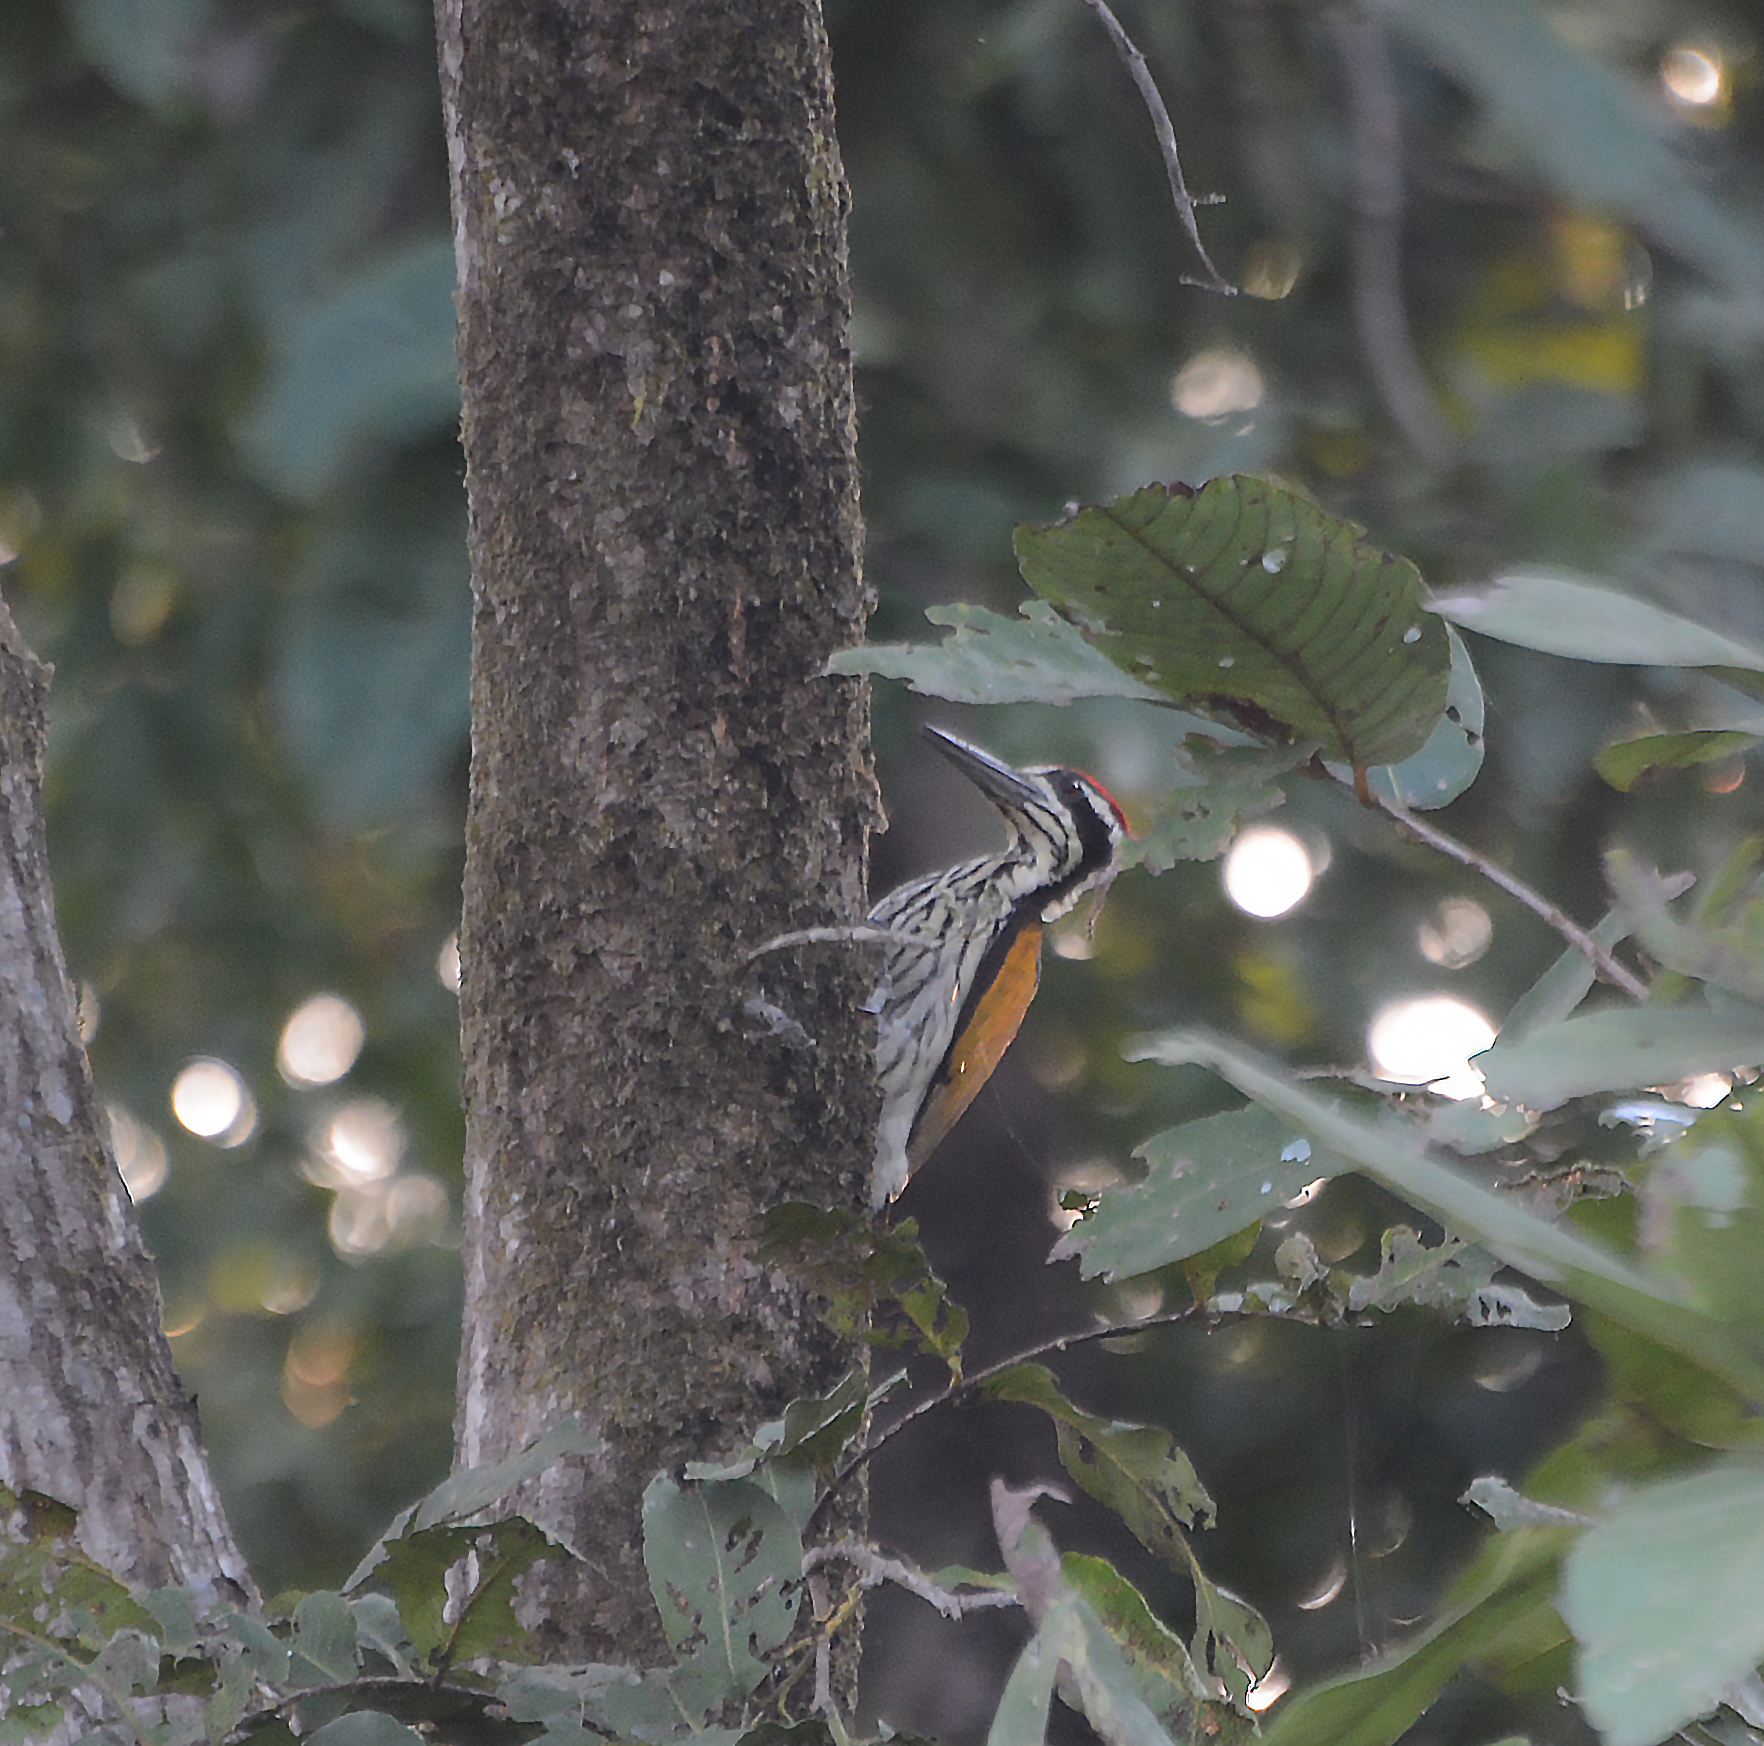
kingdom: Animalia
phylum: Chordata
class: Aves
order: Piciformes
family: Picidae
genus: Chrysocolaptes
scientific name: Chrysocolaptes festivus
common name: White-naped woodpecker
